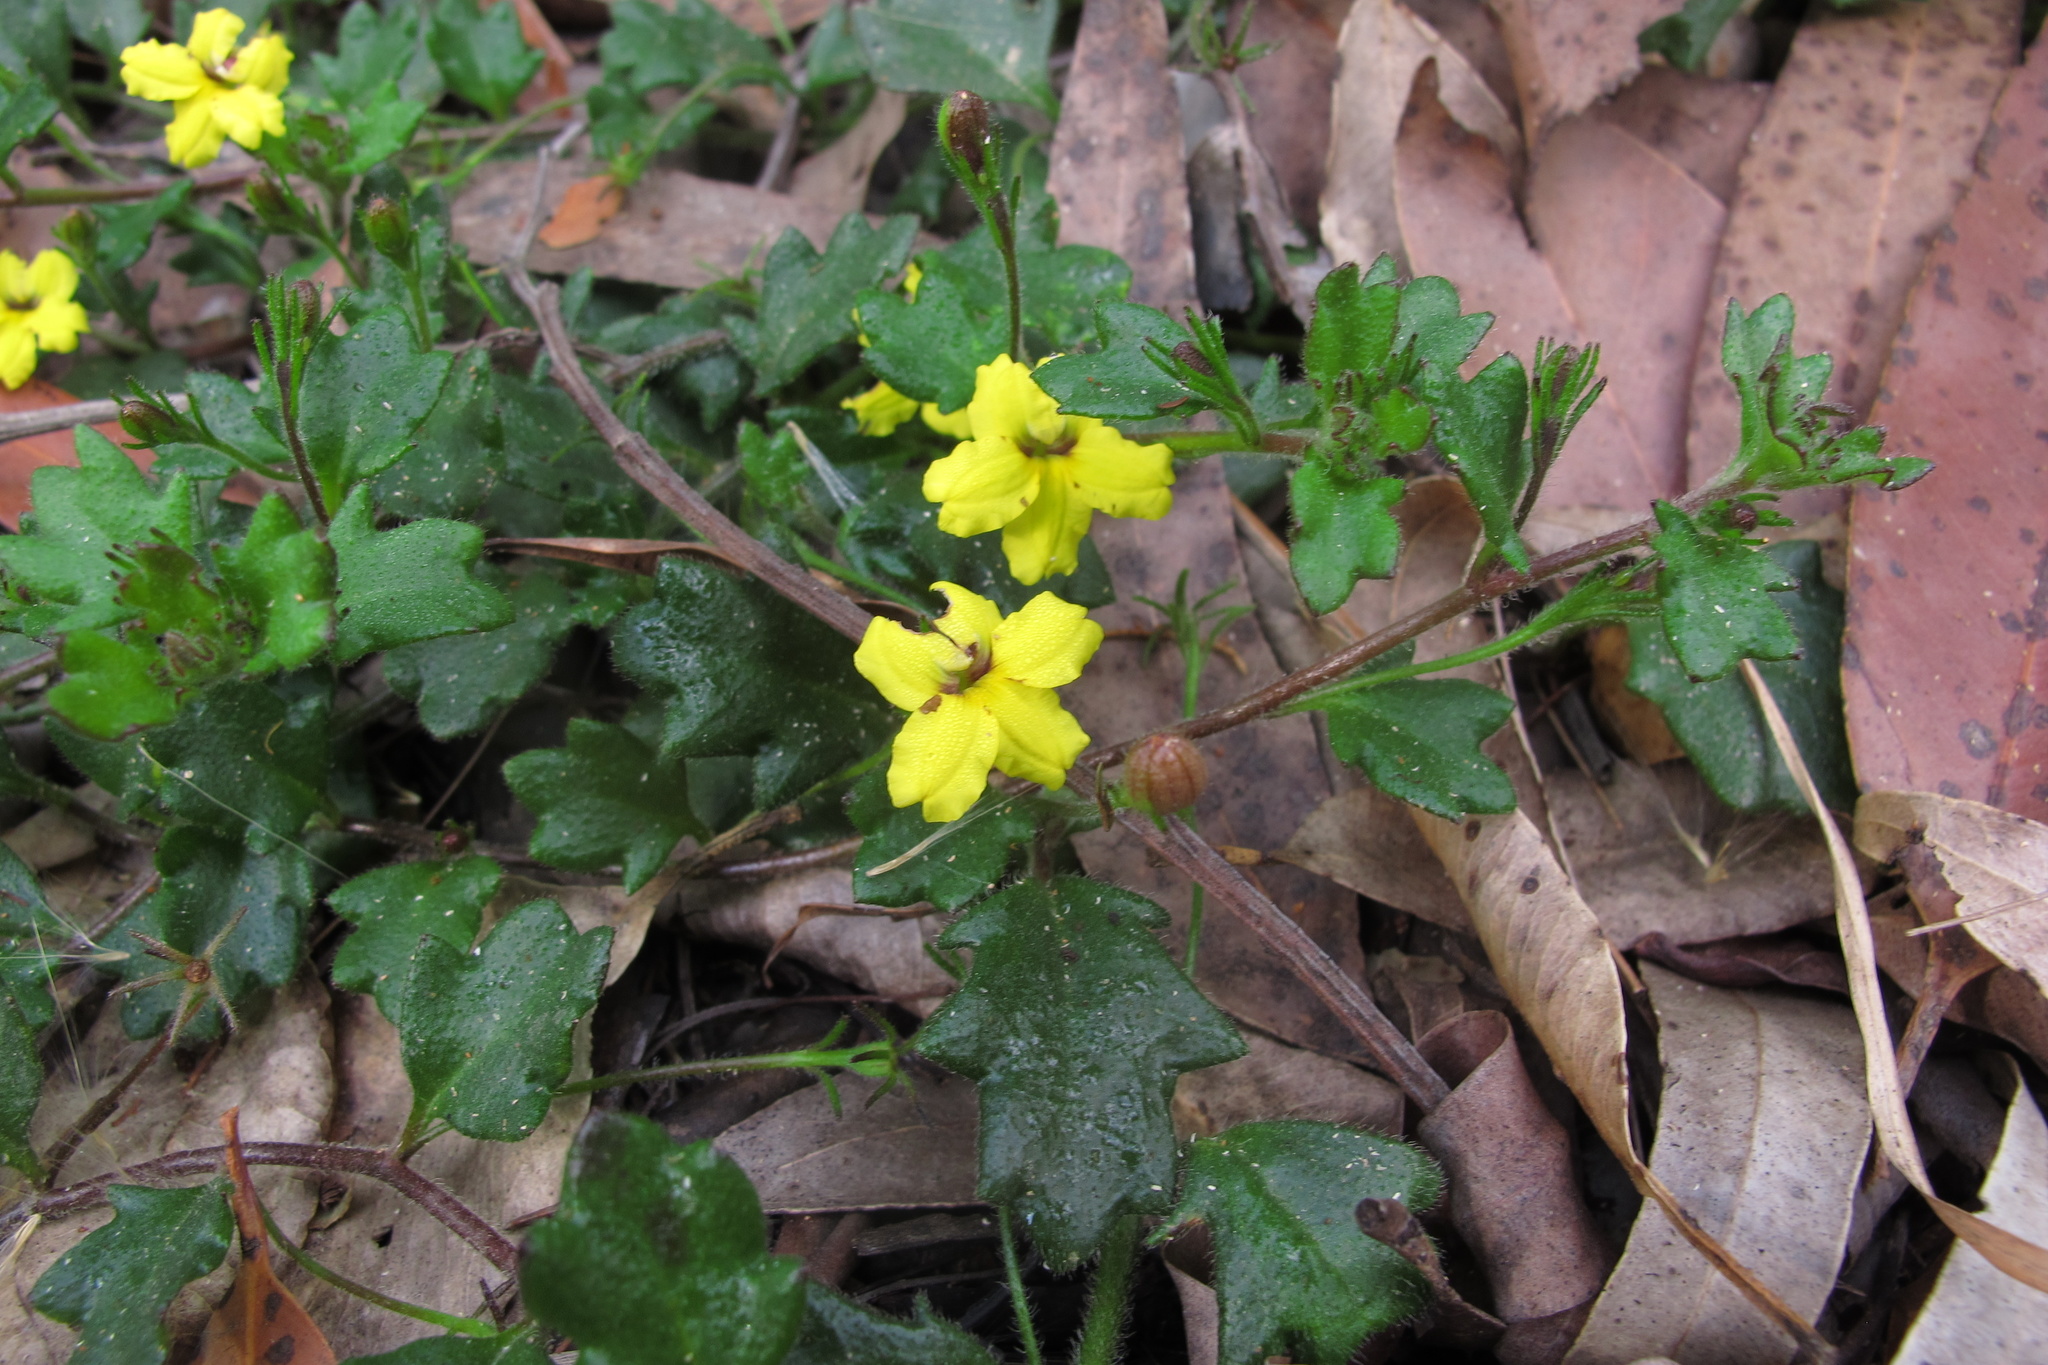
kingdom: Plantae
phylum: Tracheophyta
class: Magnoliopsida
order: Asterales
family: Goodeniaceae
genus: Goodenia
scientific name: Goodenia rotundifolia
